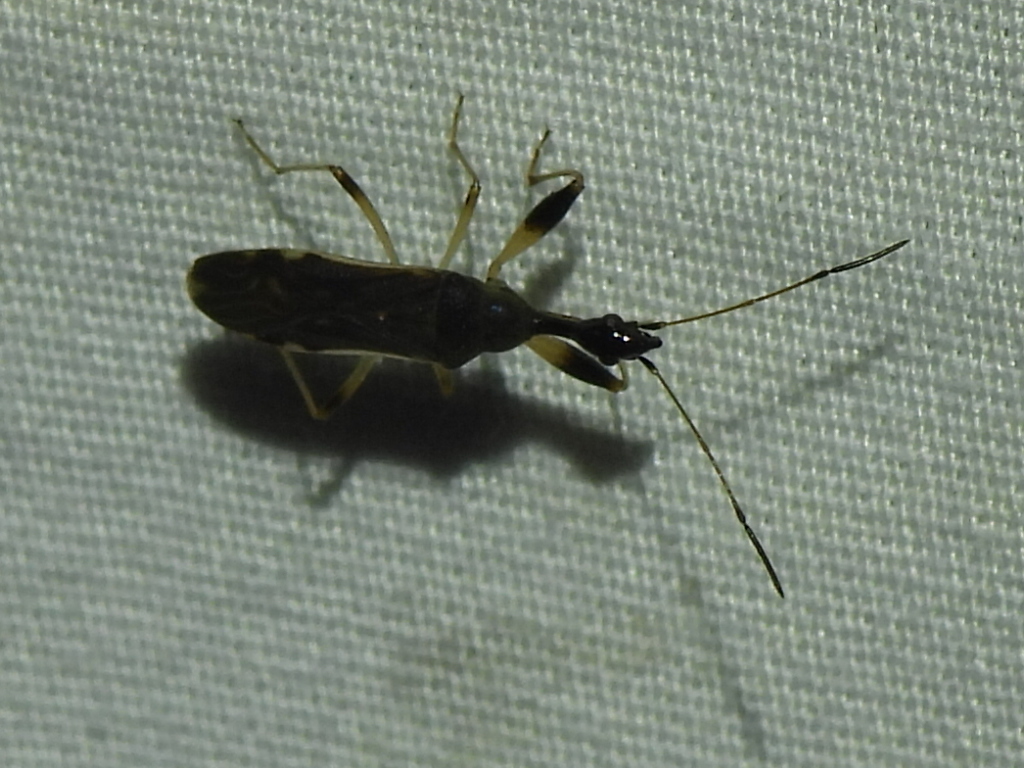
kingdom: Animalia
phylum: Arthropoda
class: Insecta
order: Hemiptera
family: Rhyparochromidae
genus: Myodocha
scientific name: Myodocha serripes
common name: Long-necked seed bug
